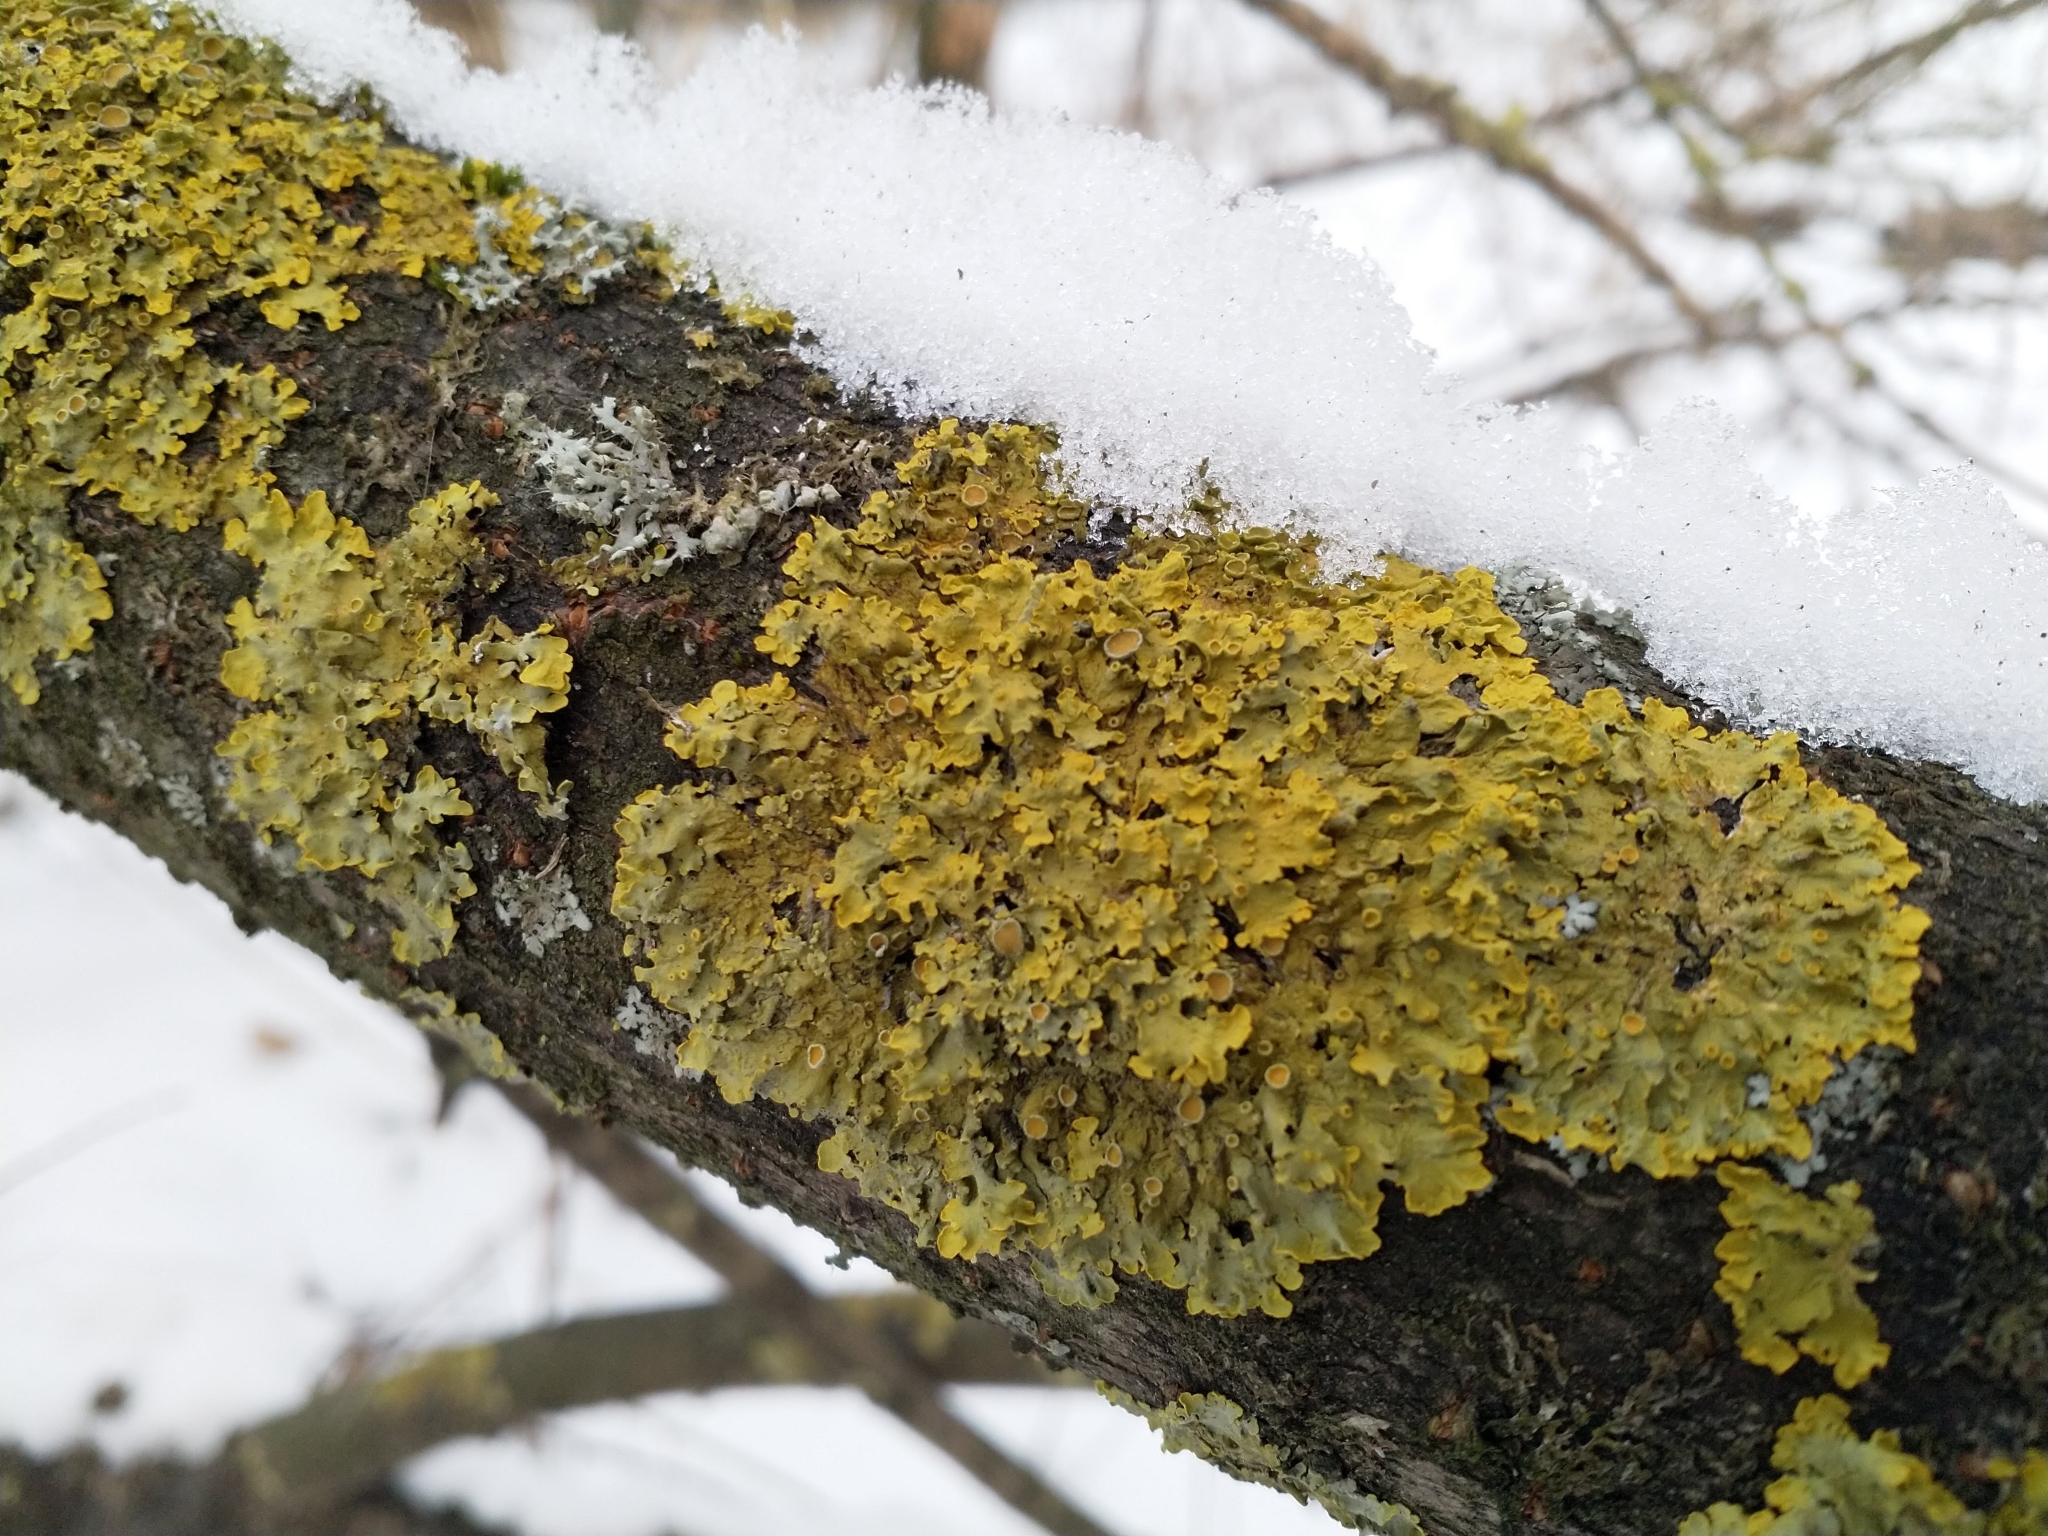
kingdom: Fungi
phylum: Ascomycota
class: Lecanoromycetes
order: Teloschistales
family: Teloschistaceae
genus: Xanthoria
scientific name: Xanthoria parietina
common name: Common orange lichen
